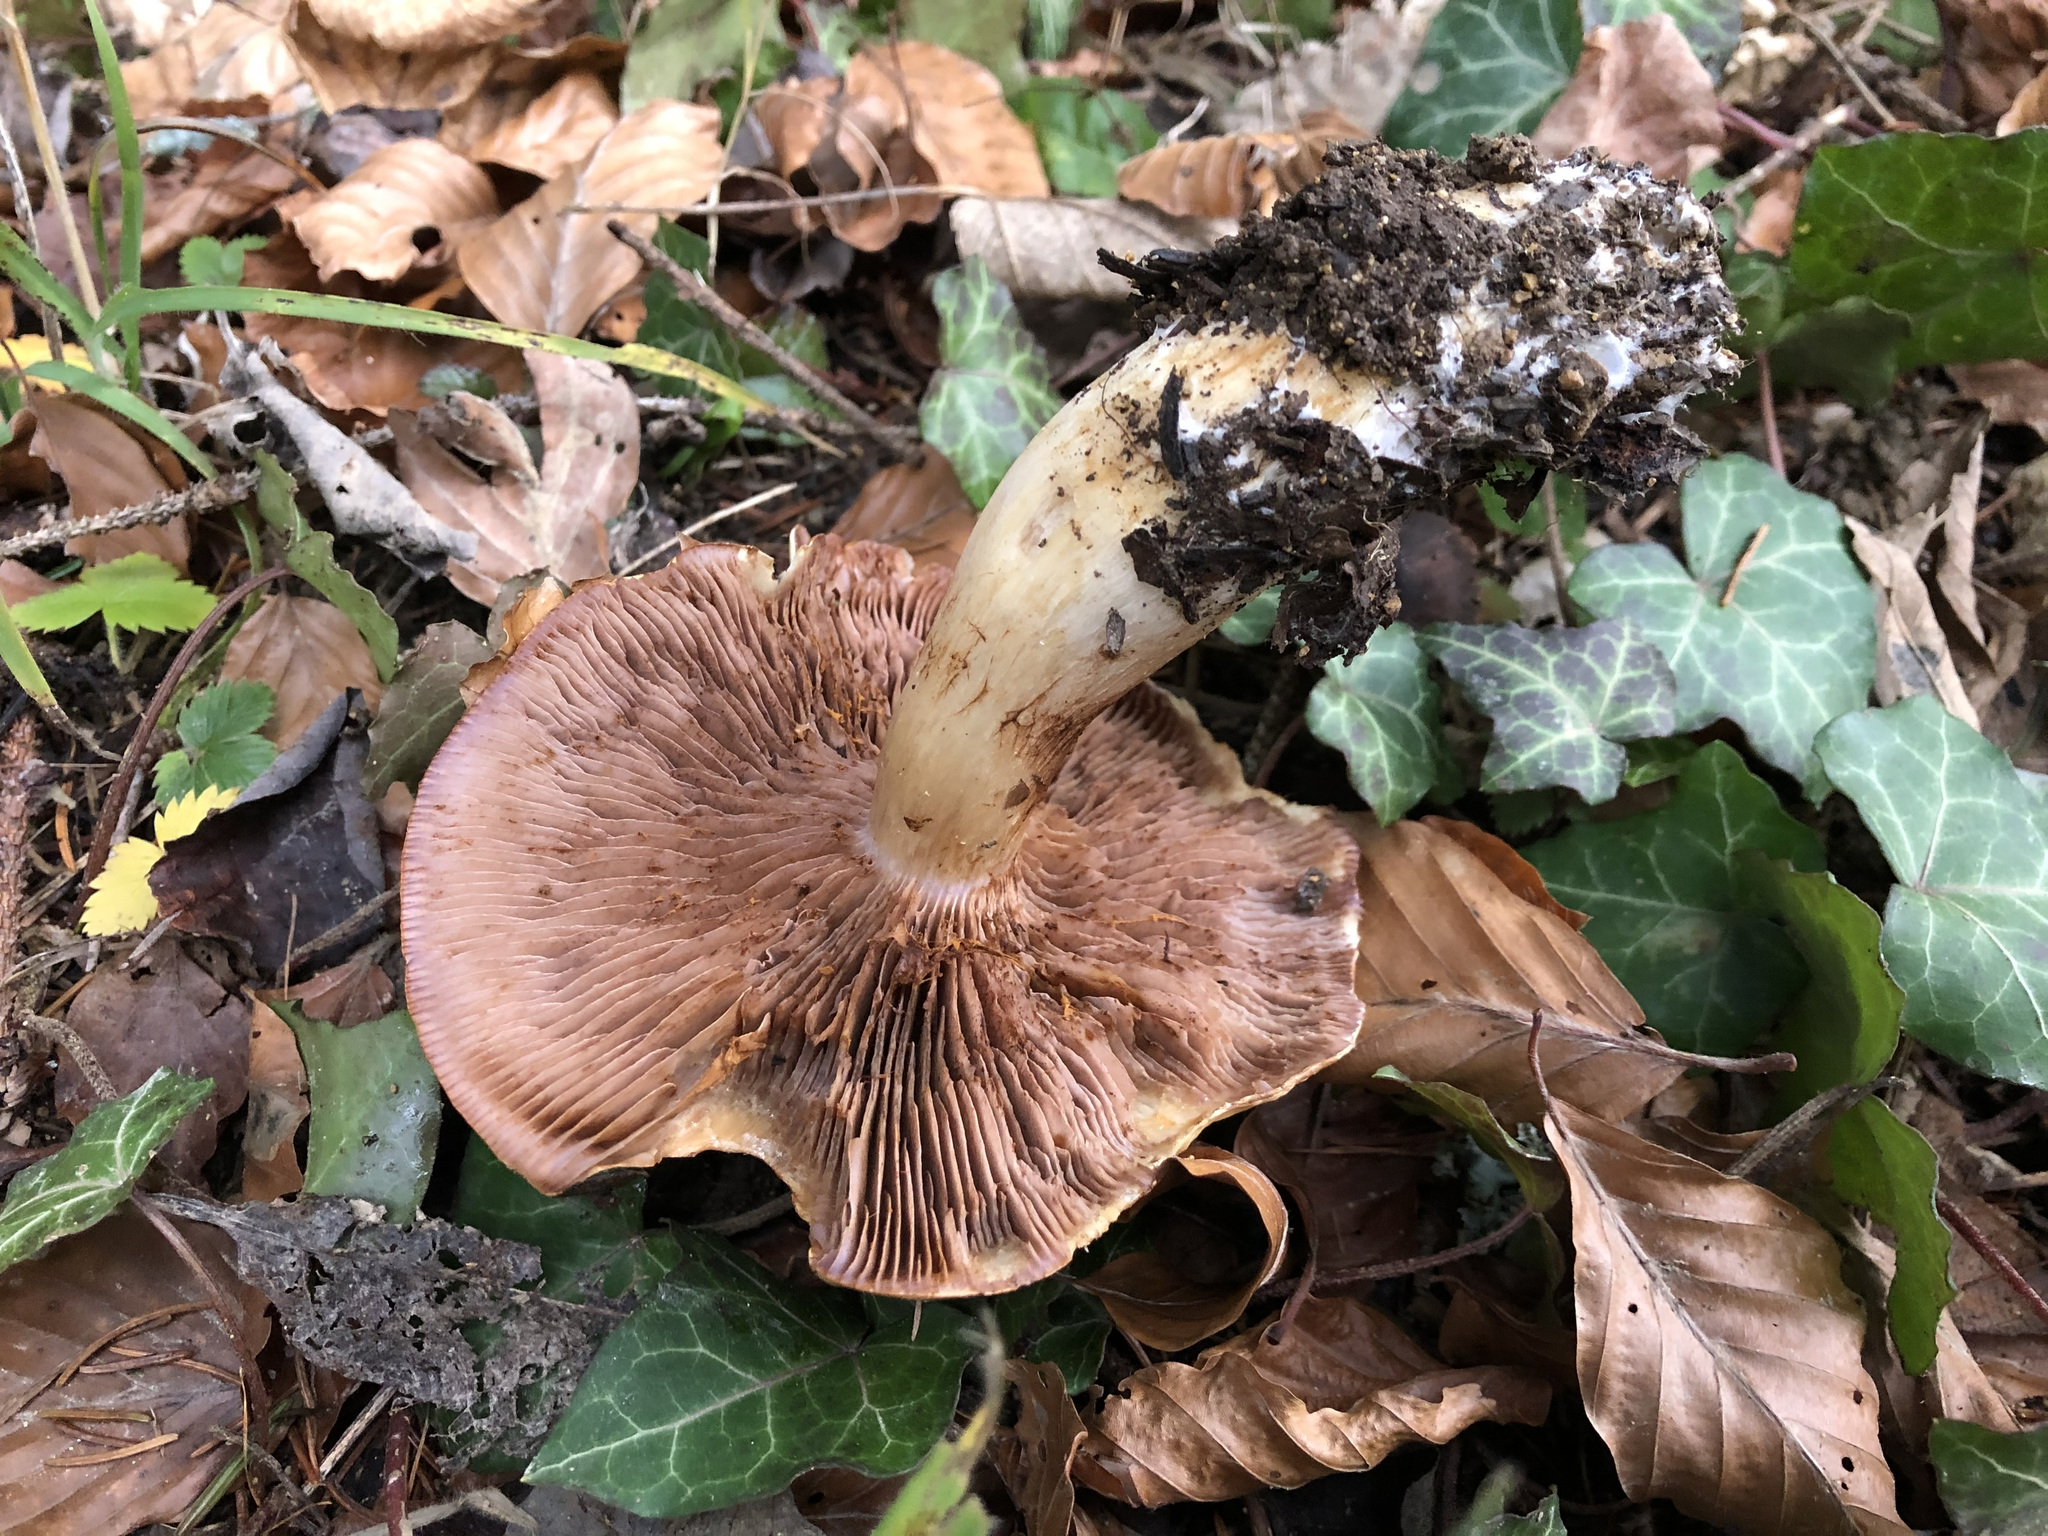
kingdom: Fungi
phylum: Basidiomycota
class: Agaricomycetes
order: Agaricales
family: Cortinariaceae
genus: Cortinarius
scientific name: Cortinarius varius
